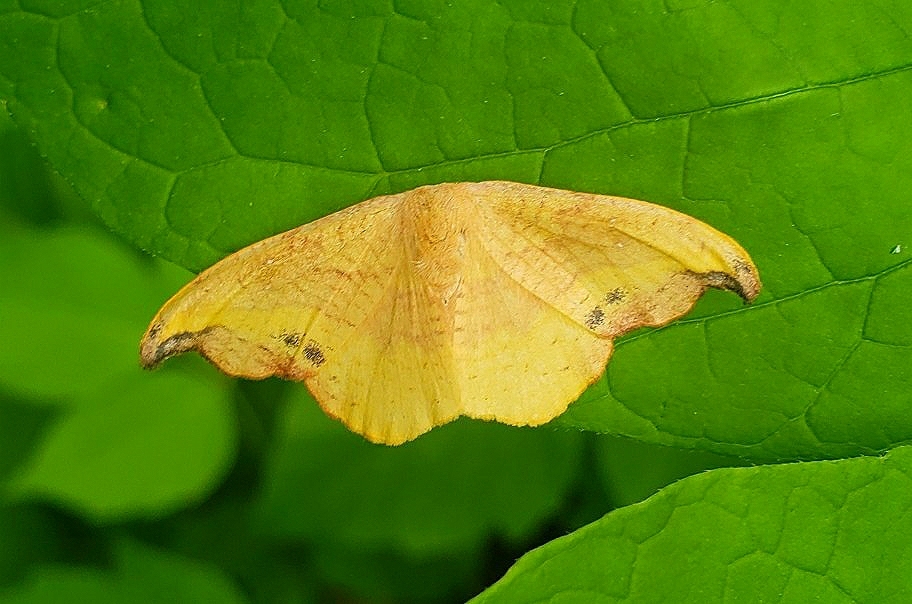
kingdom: Animalia
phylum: Arthropoda
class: Insecta
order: Lepidoptera
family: Drepanidae
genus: Oreta
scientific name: Oreta rosea
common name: Rose hooktip
